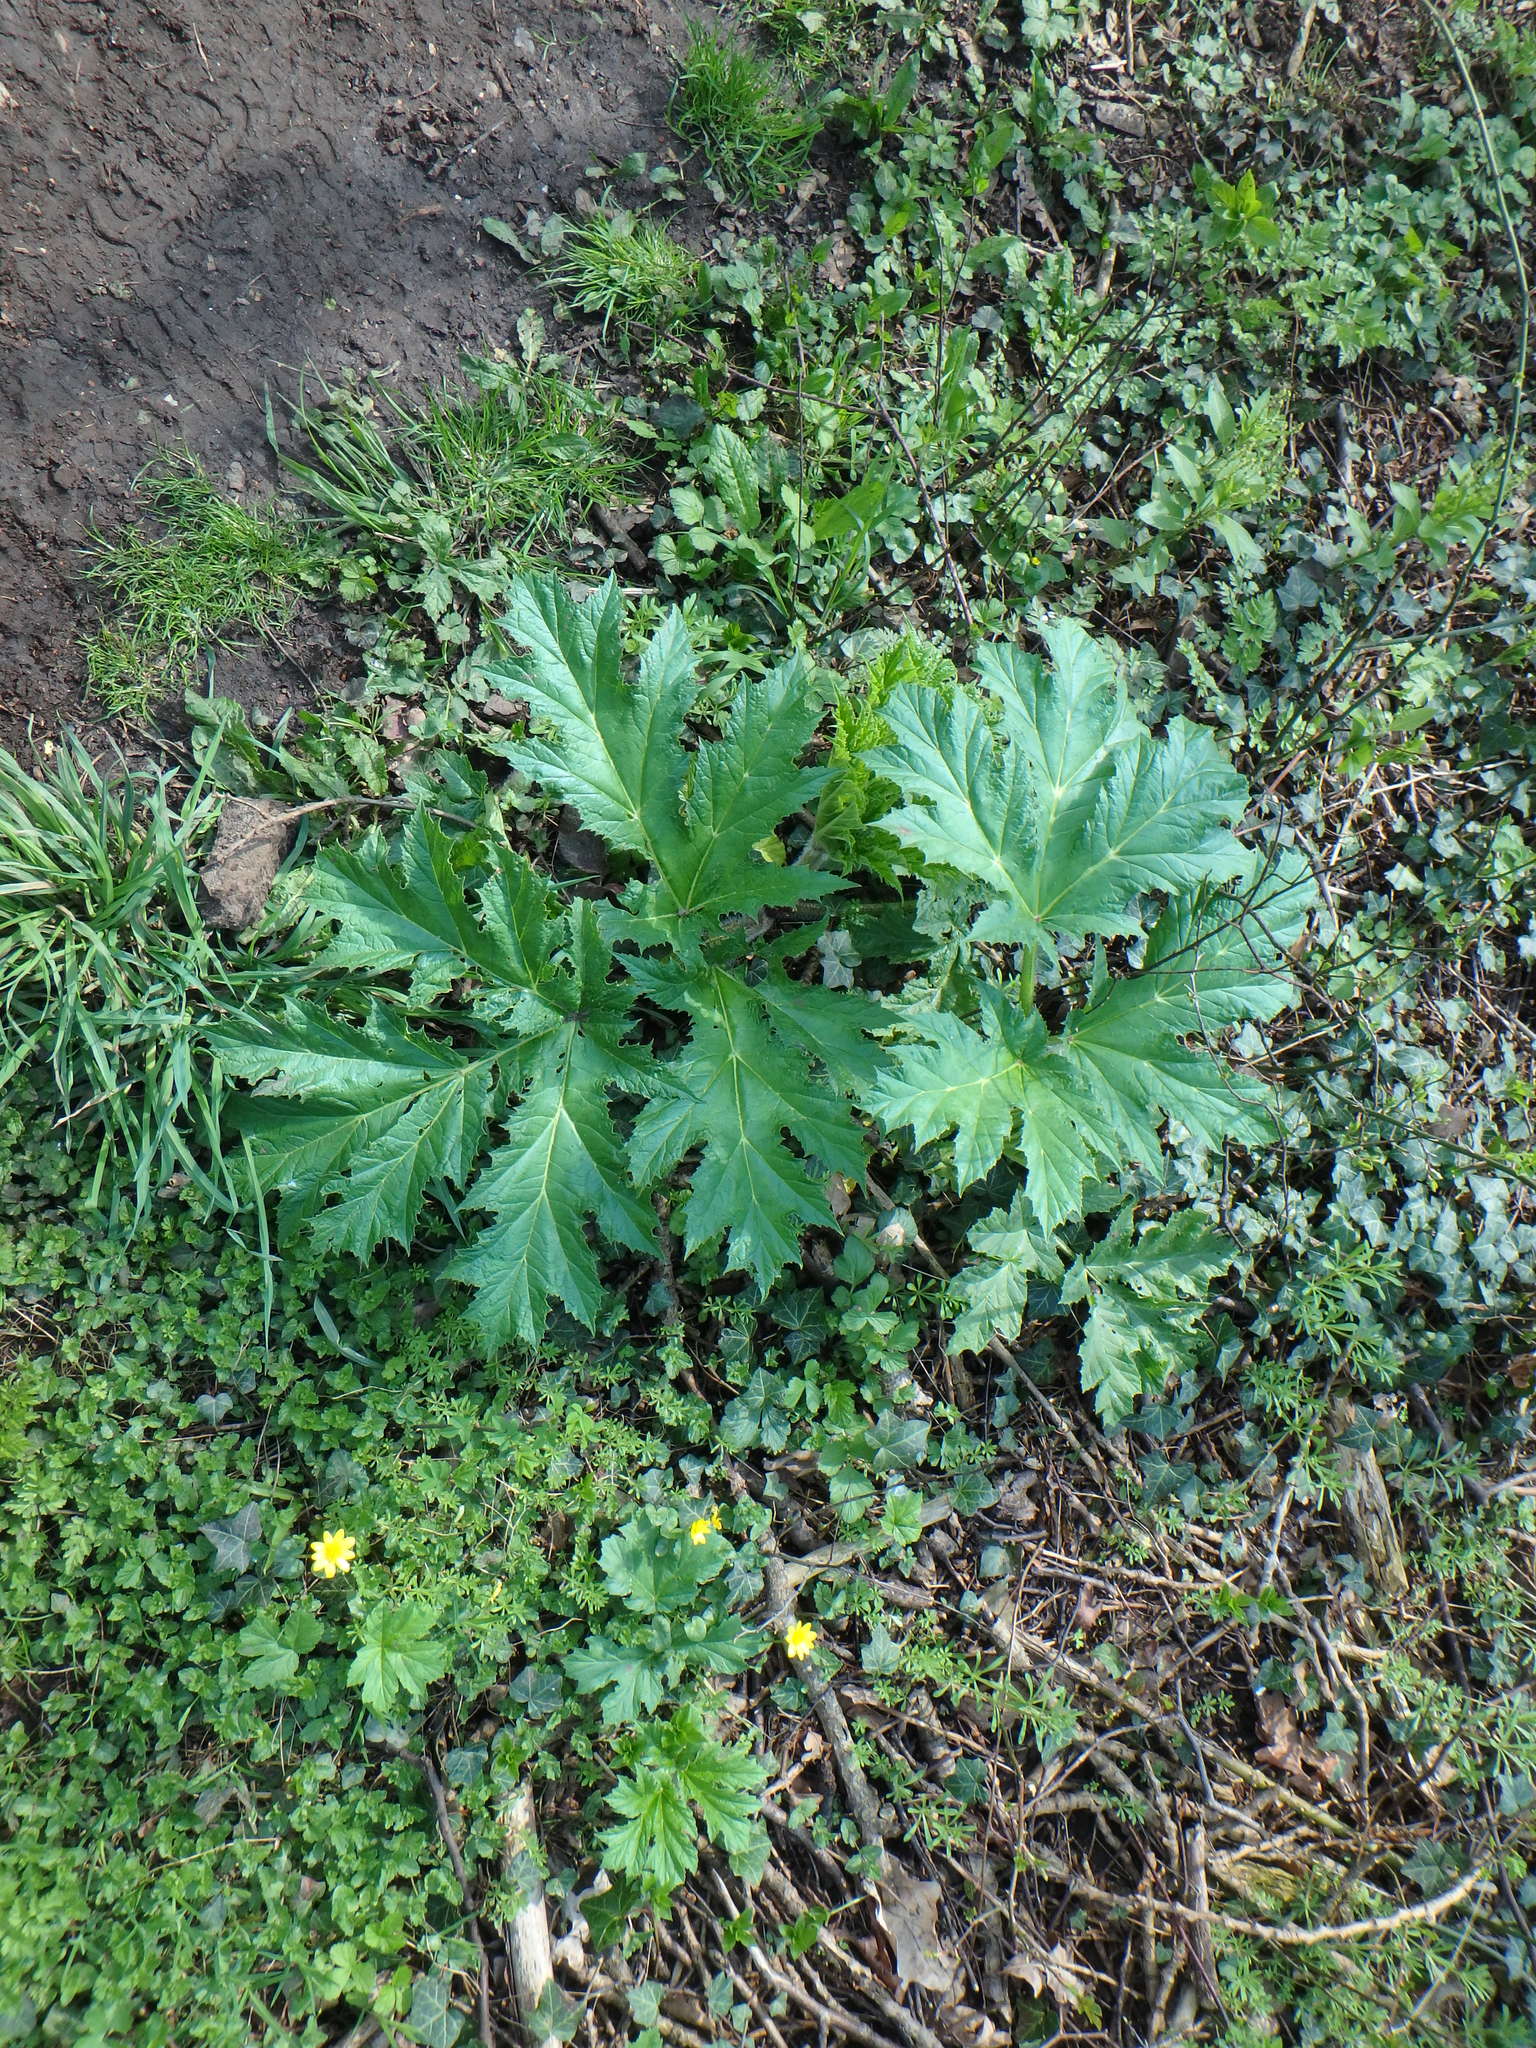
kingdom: Plantae
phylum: Tracheophyta
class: Magnoliopsida
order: Apiales
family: Apiaceae
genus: Heracleum
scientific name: Heracleum mantegazzianum
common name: Giant hogweed
